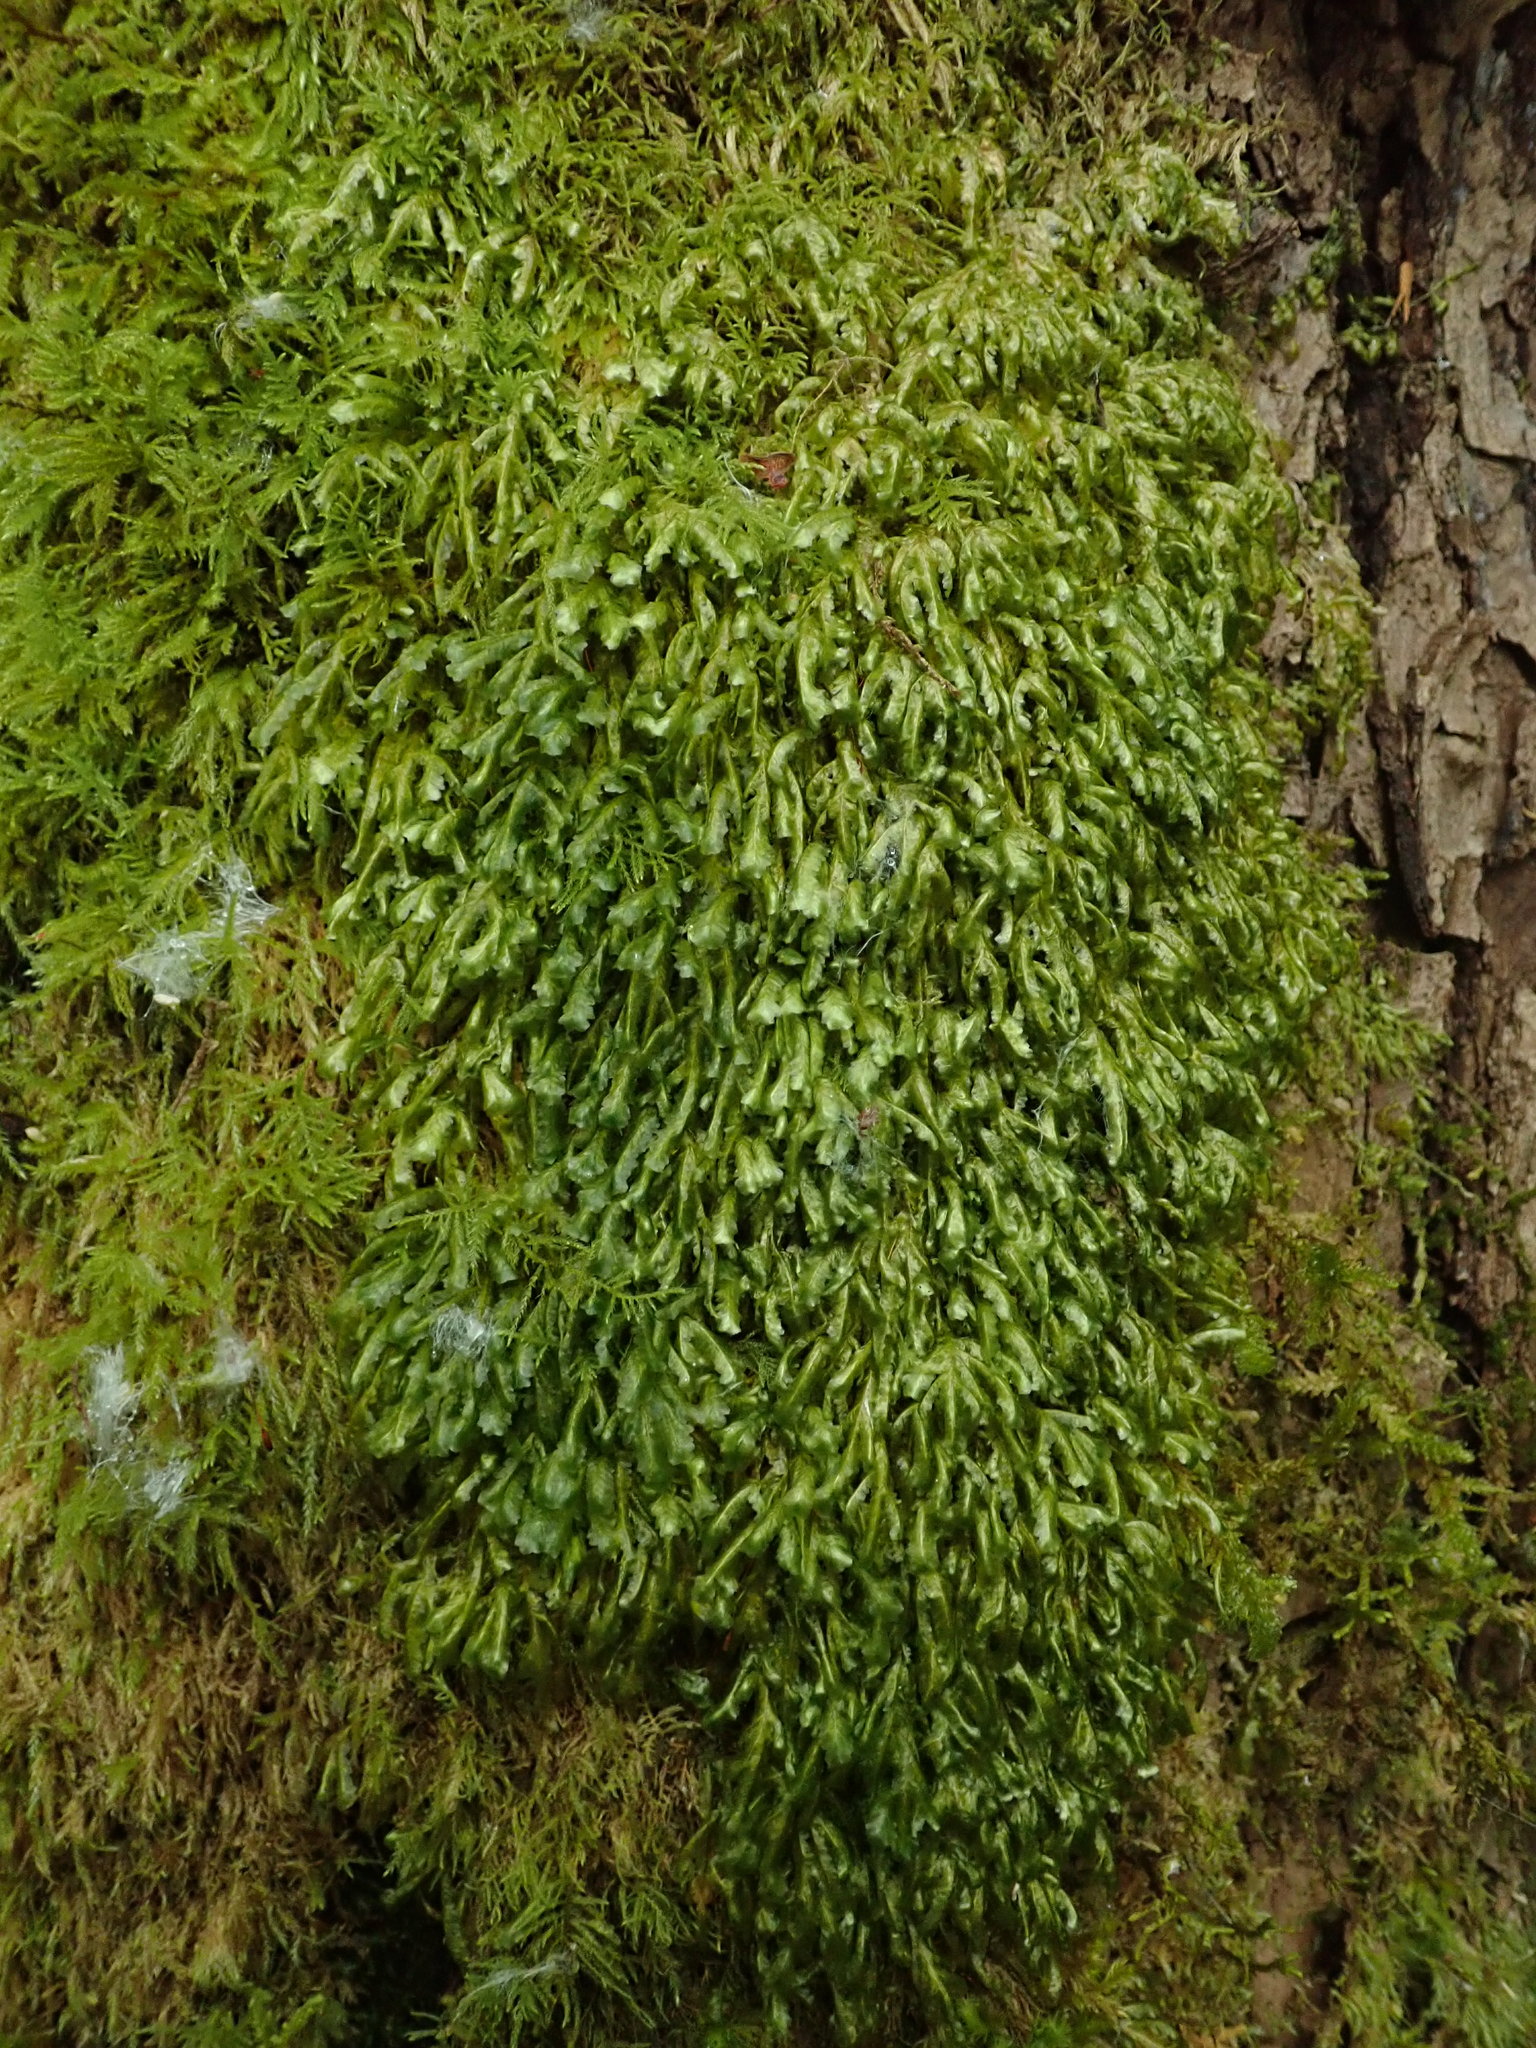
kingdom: Plantae
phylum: Bryophyta
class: Bryopsida
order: Hypnales
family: Neckeraceae
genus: Homalia
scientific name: Homalia trichomanoides
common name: Lime homalia moss
